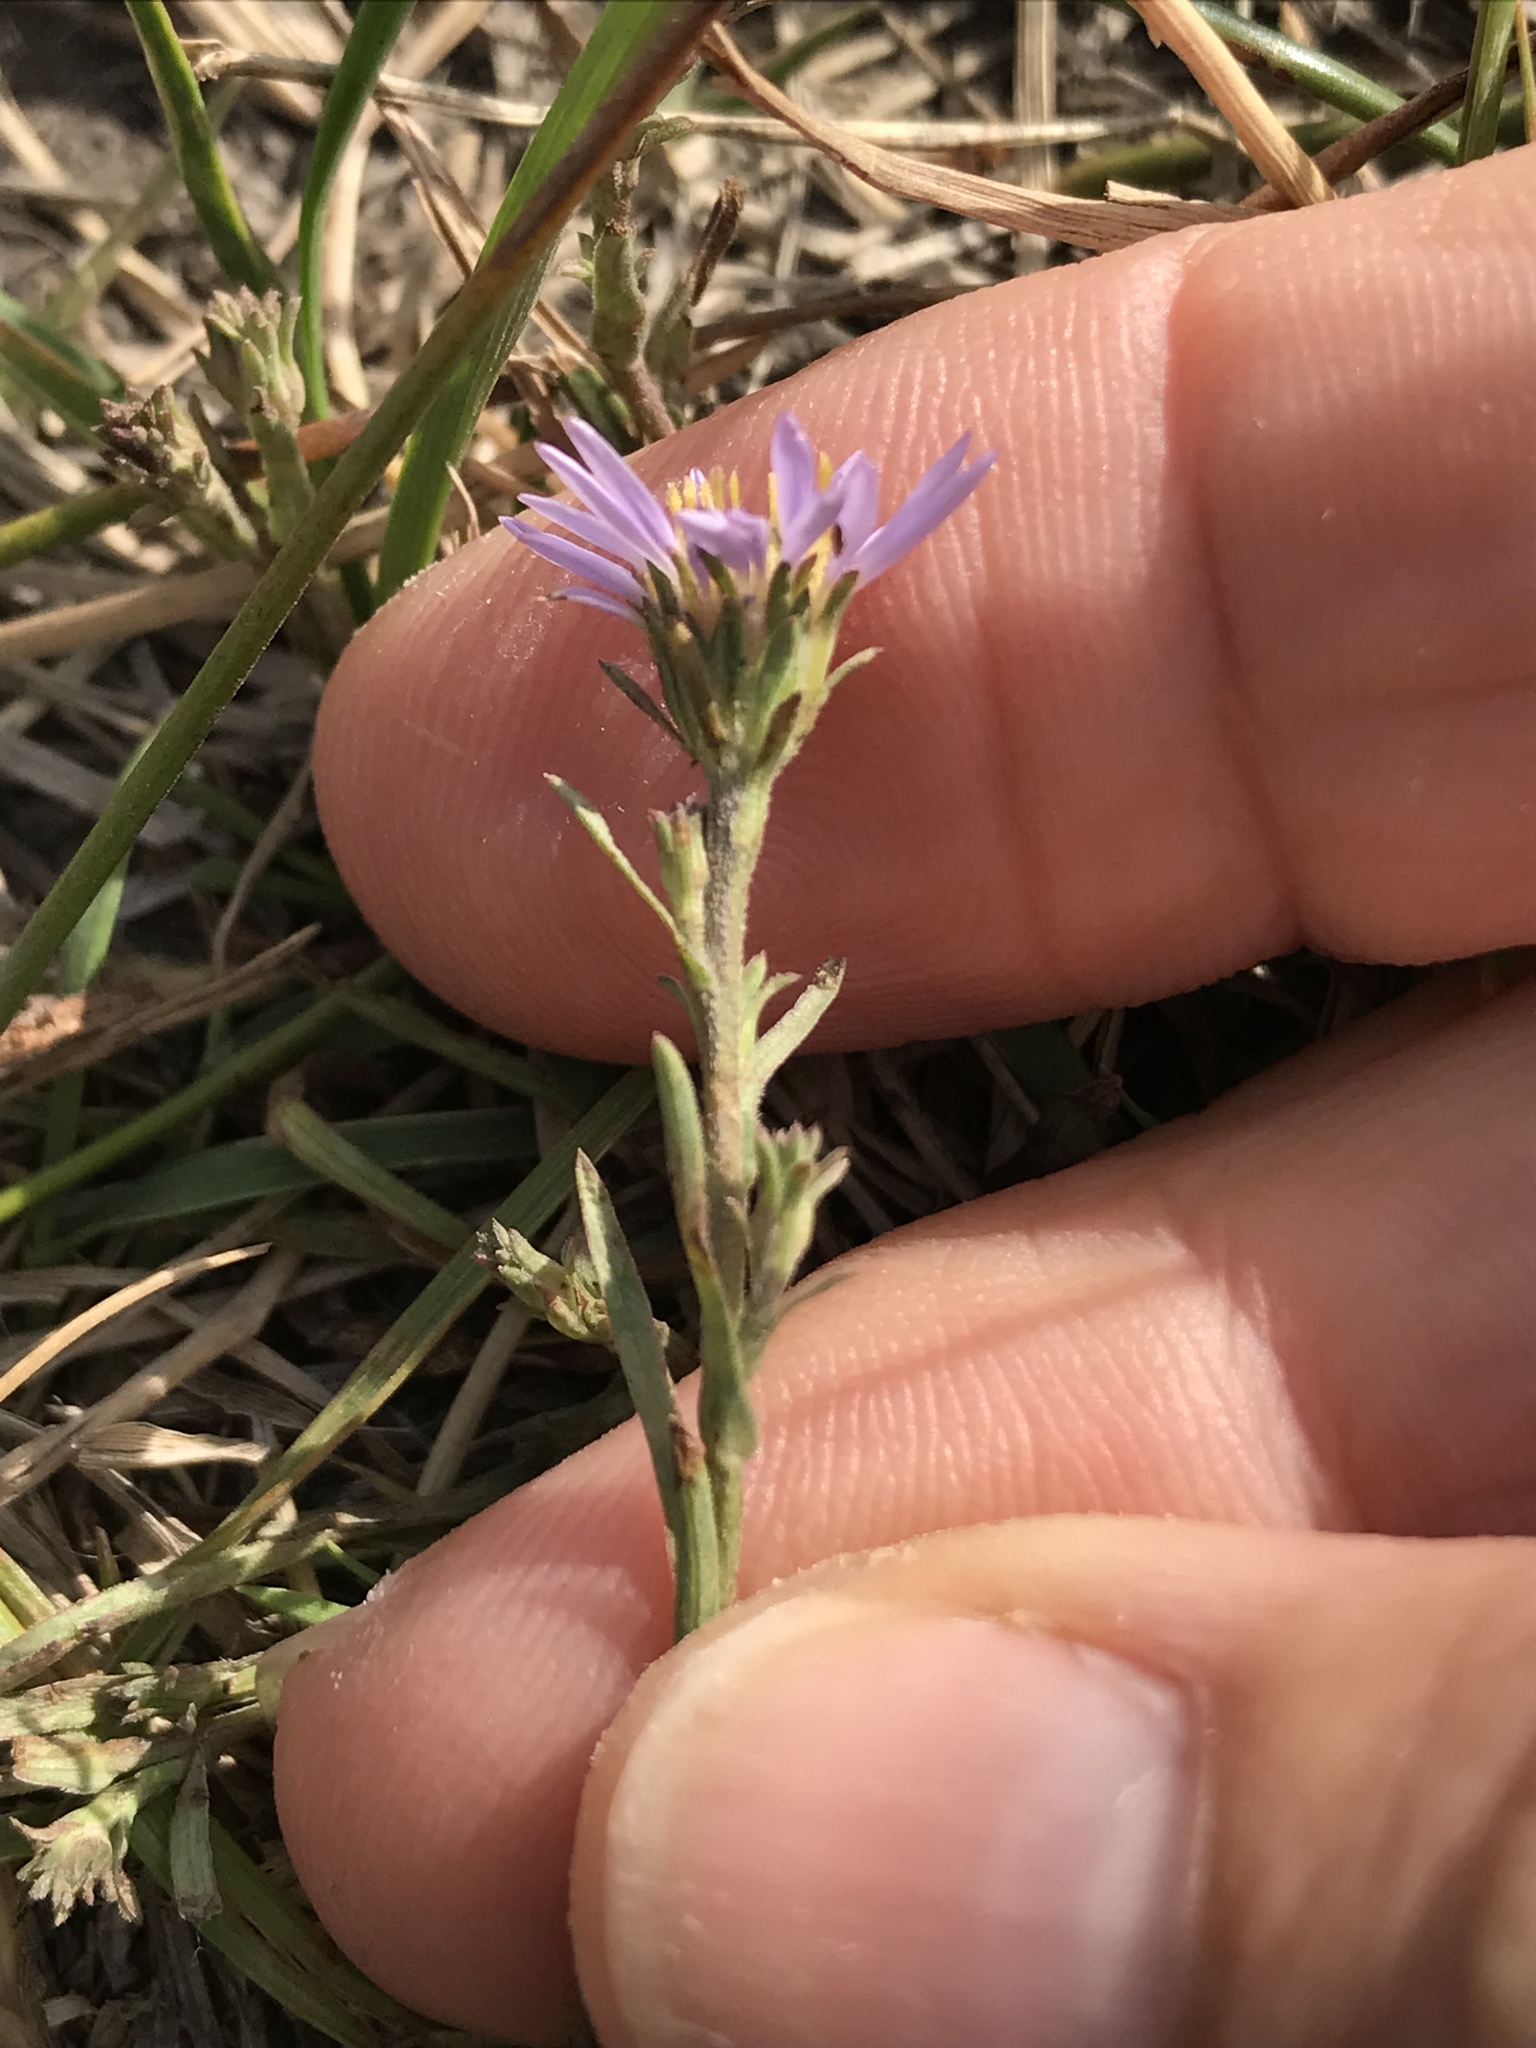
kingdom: Plantae
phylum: Tracheophyta
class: Magnoliopsida
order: Asterales
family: Asteraceae
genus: Dieteria
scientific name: Dieteria canescens
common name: Hoary-aster
